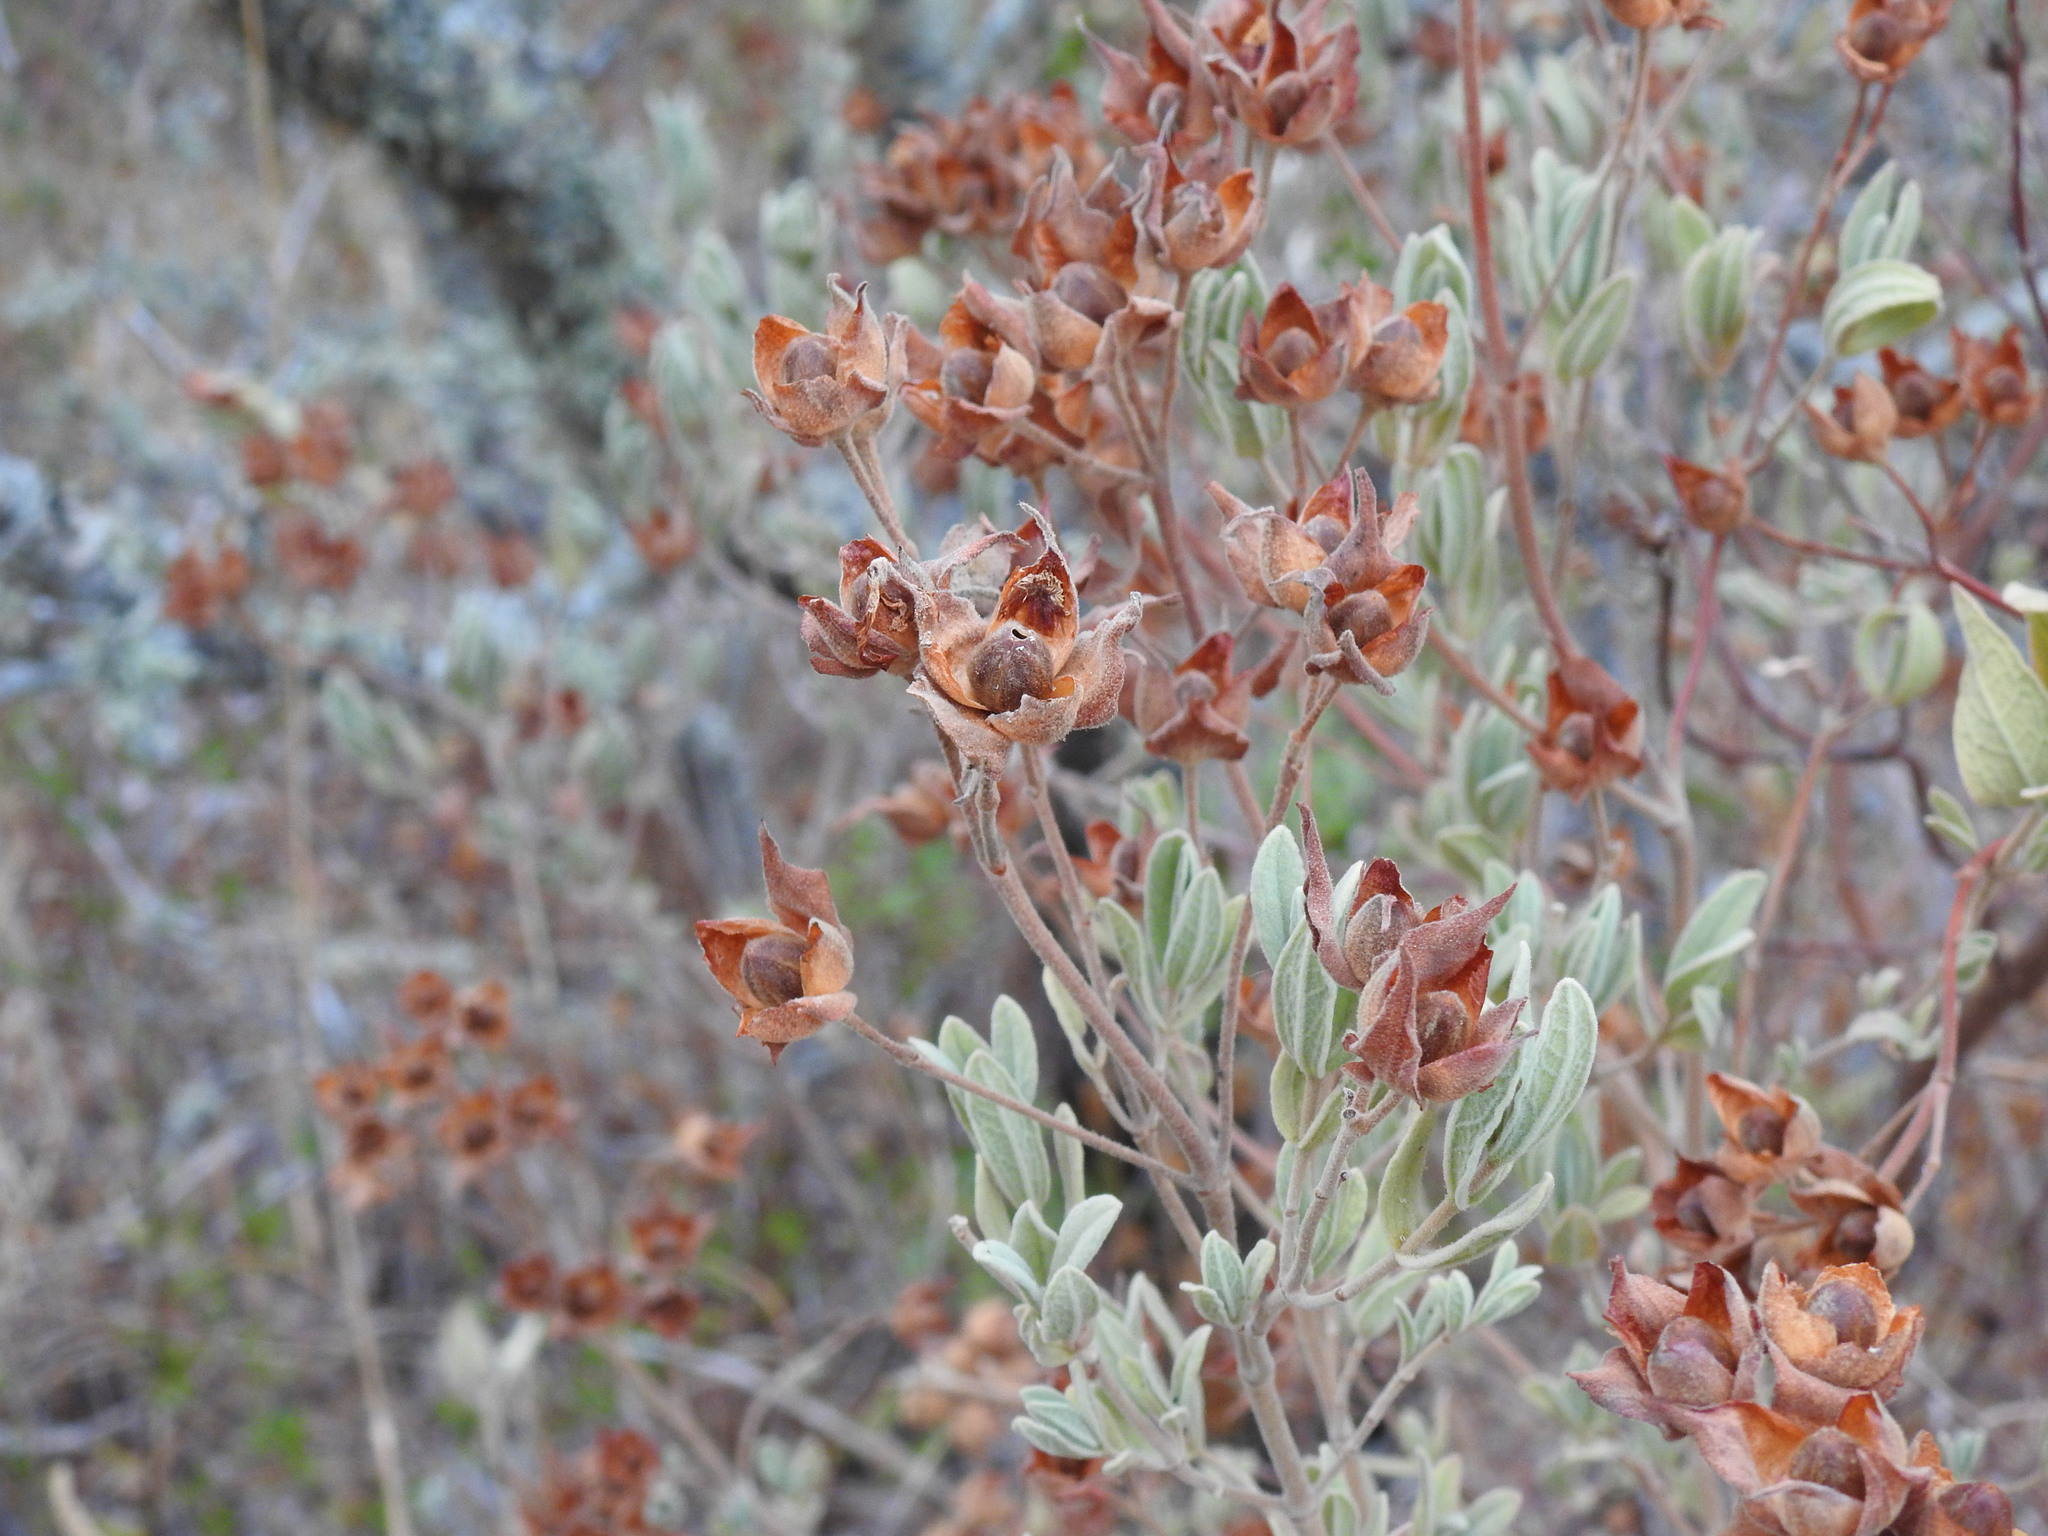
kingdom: Plantae
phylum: Tracheophyta
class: Magnoliopsida
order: Malvales
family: Cistaceae
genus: Cistus
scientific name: Cistus albidus
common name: White-leaf rock-rose
